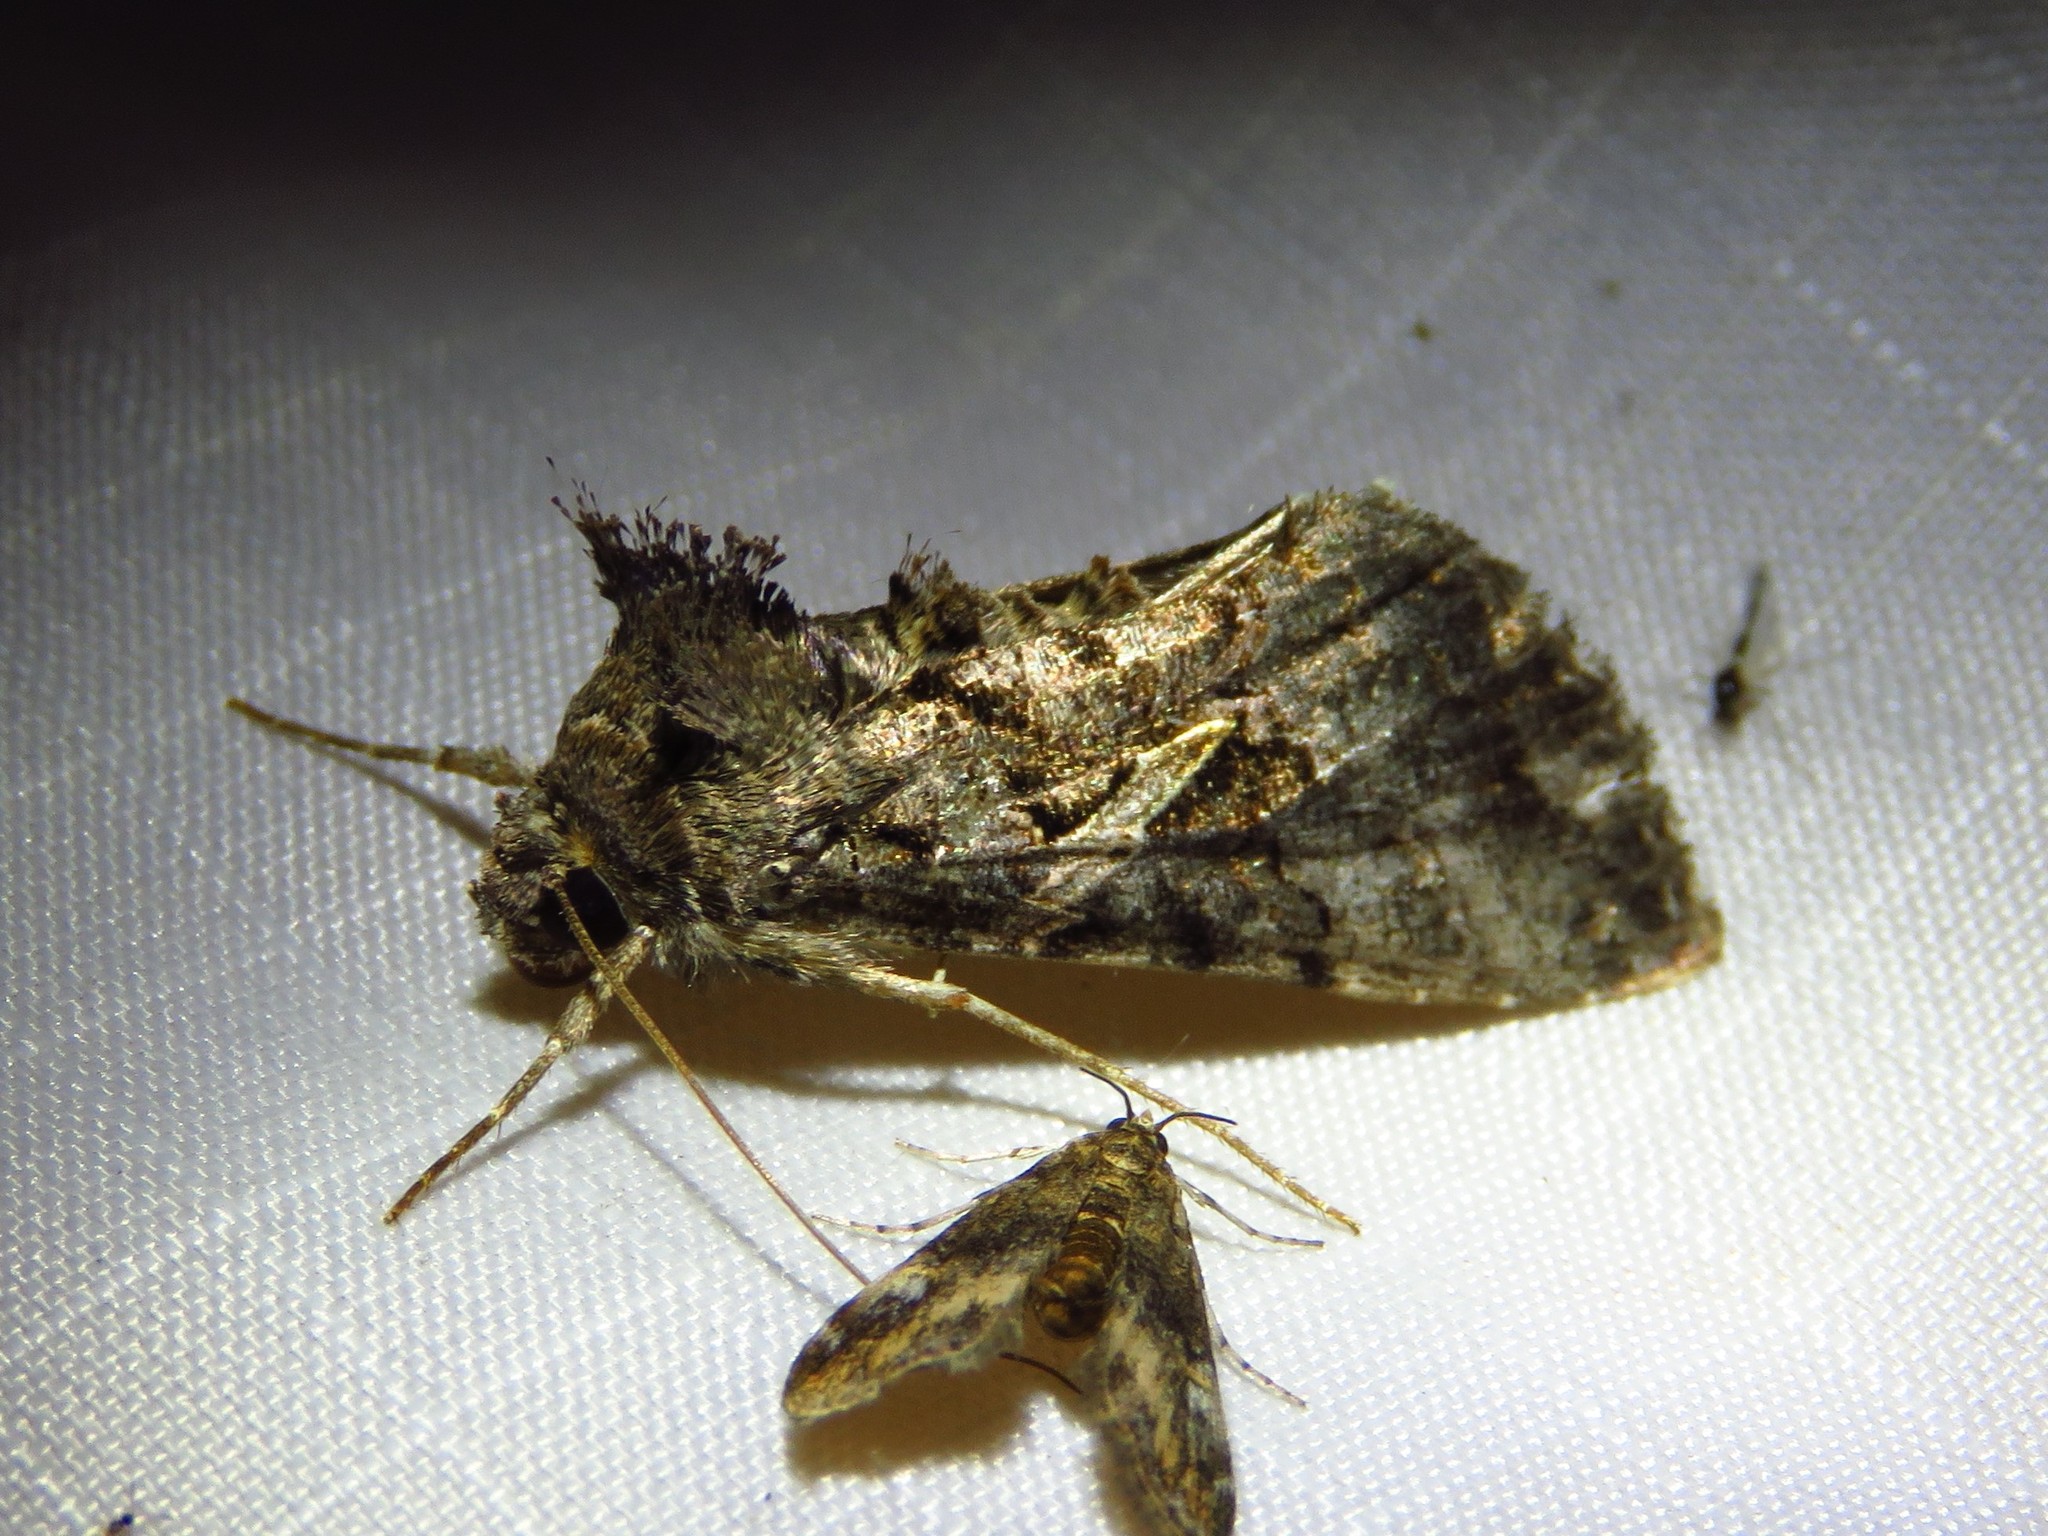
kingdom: Animalia
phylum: Arthropoda
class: Insecta
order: Lepidoptera
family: Noctuidae
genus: Ctenoplusia
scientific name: Ctenoplusia oxygramma
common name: Sharp-stigma looper moth
